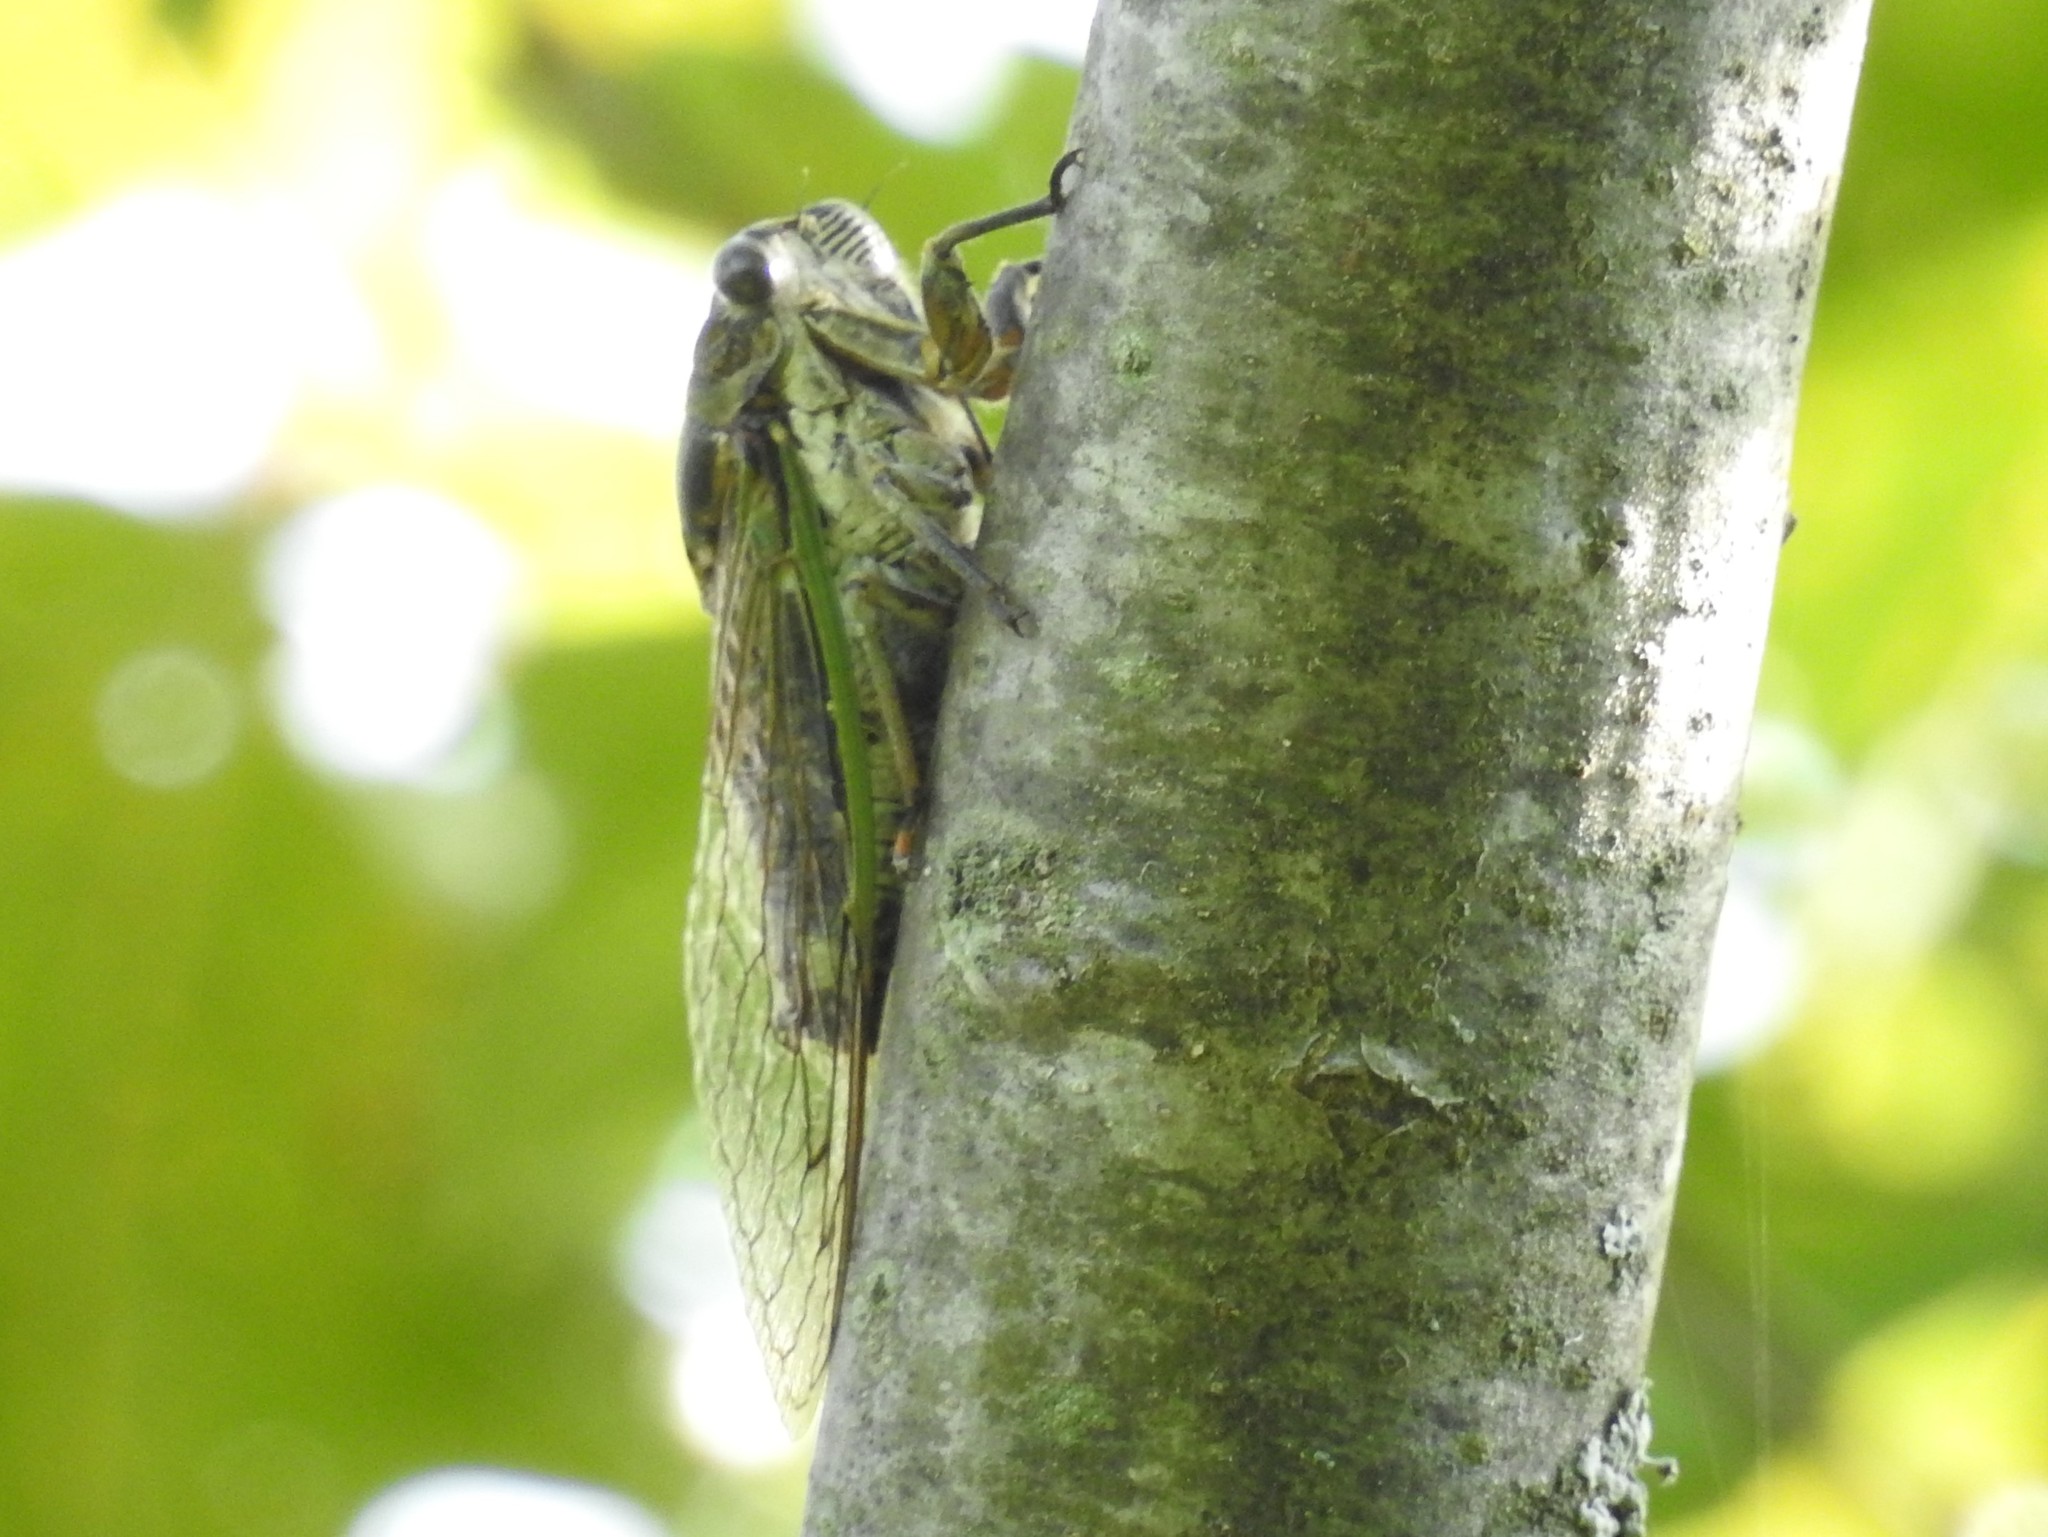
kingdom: Animalia
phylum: Arthropoda
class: Insecta
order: Hemiptera
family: Cicadidae
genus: Neotibicen
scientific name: Neotibicen canicularis
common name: God-day cicada
